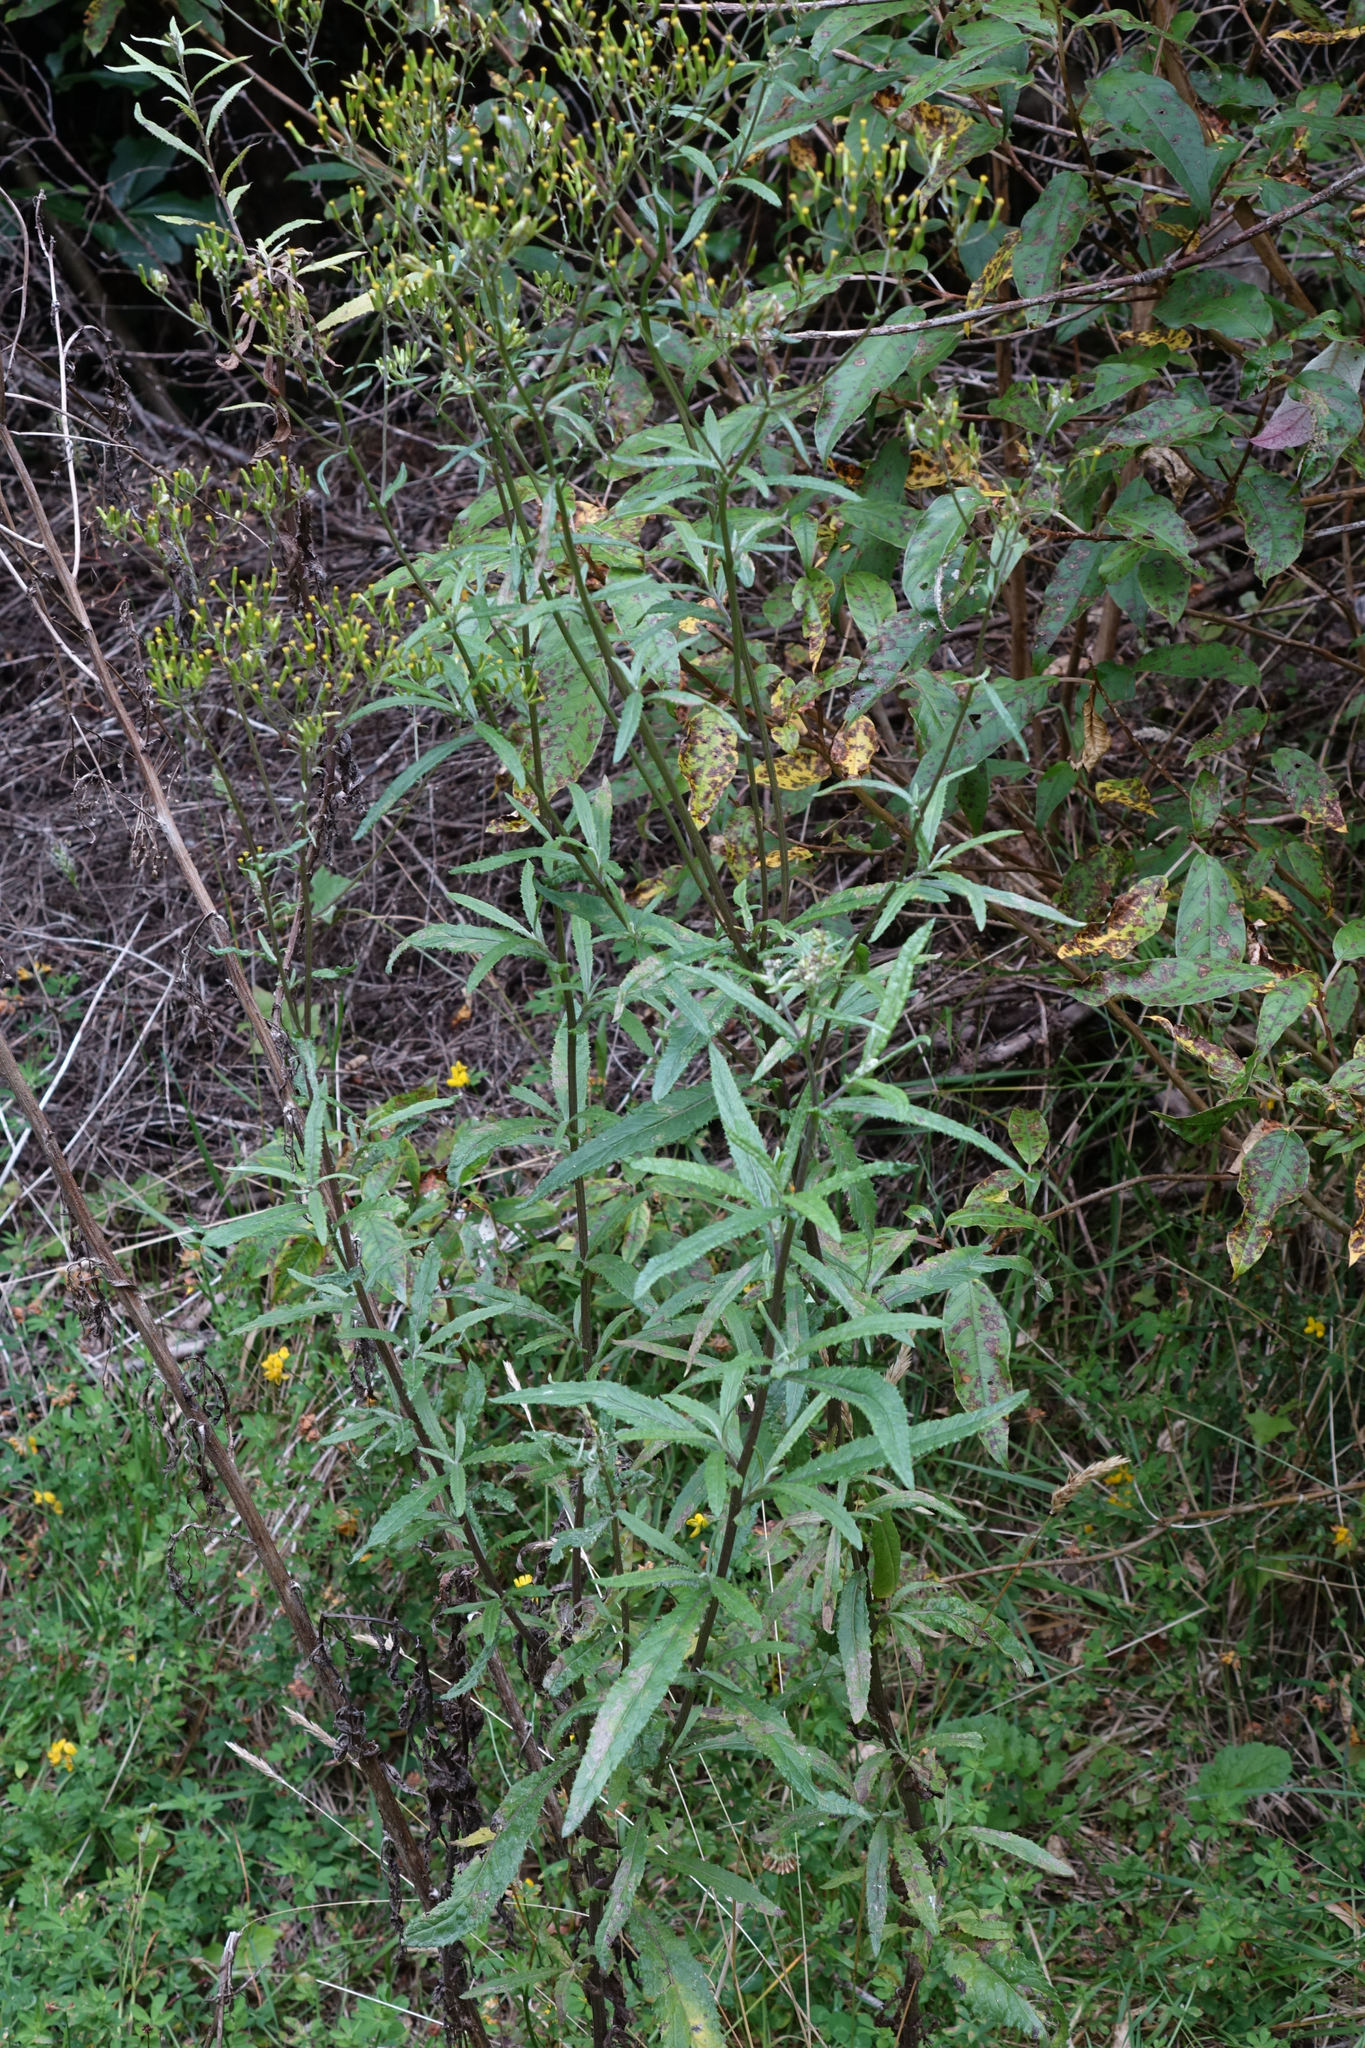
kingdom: Plantae
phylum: Tracheophyta
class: Magnoliopsida
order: Asterales
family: Asteraceae
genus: Senecio
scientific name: Senecio minimus
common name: Toothed fireweed
